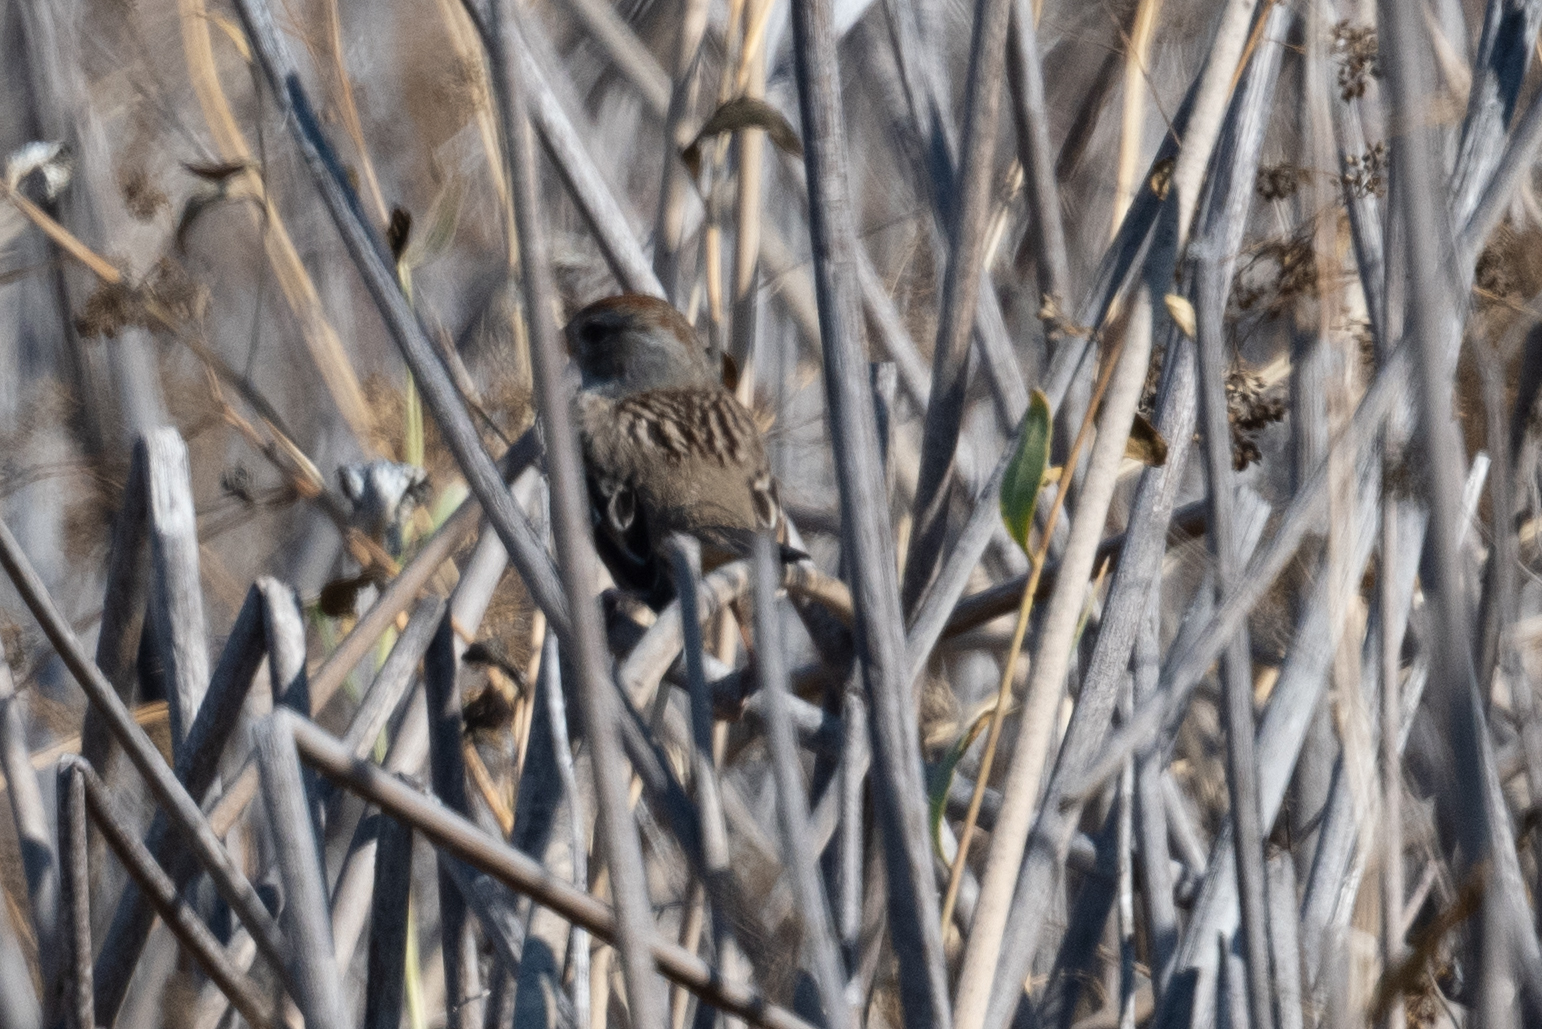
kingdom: Animalia
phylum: Chordata
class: Aves
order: Passeriformes
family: Passerellidae
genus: Zonotrichia
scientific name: Zonotrichia leucophrys
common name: White-crowned sparrow
